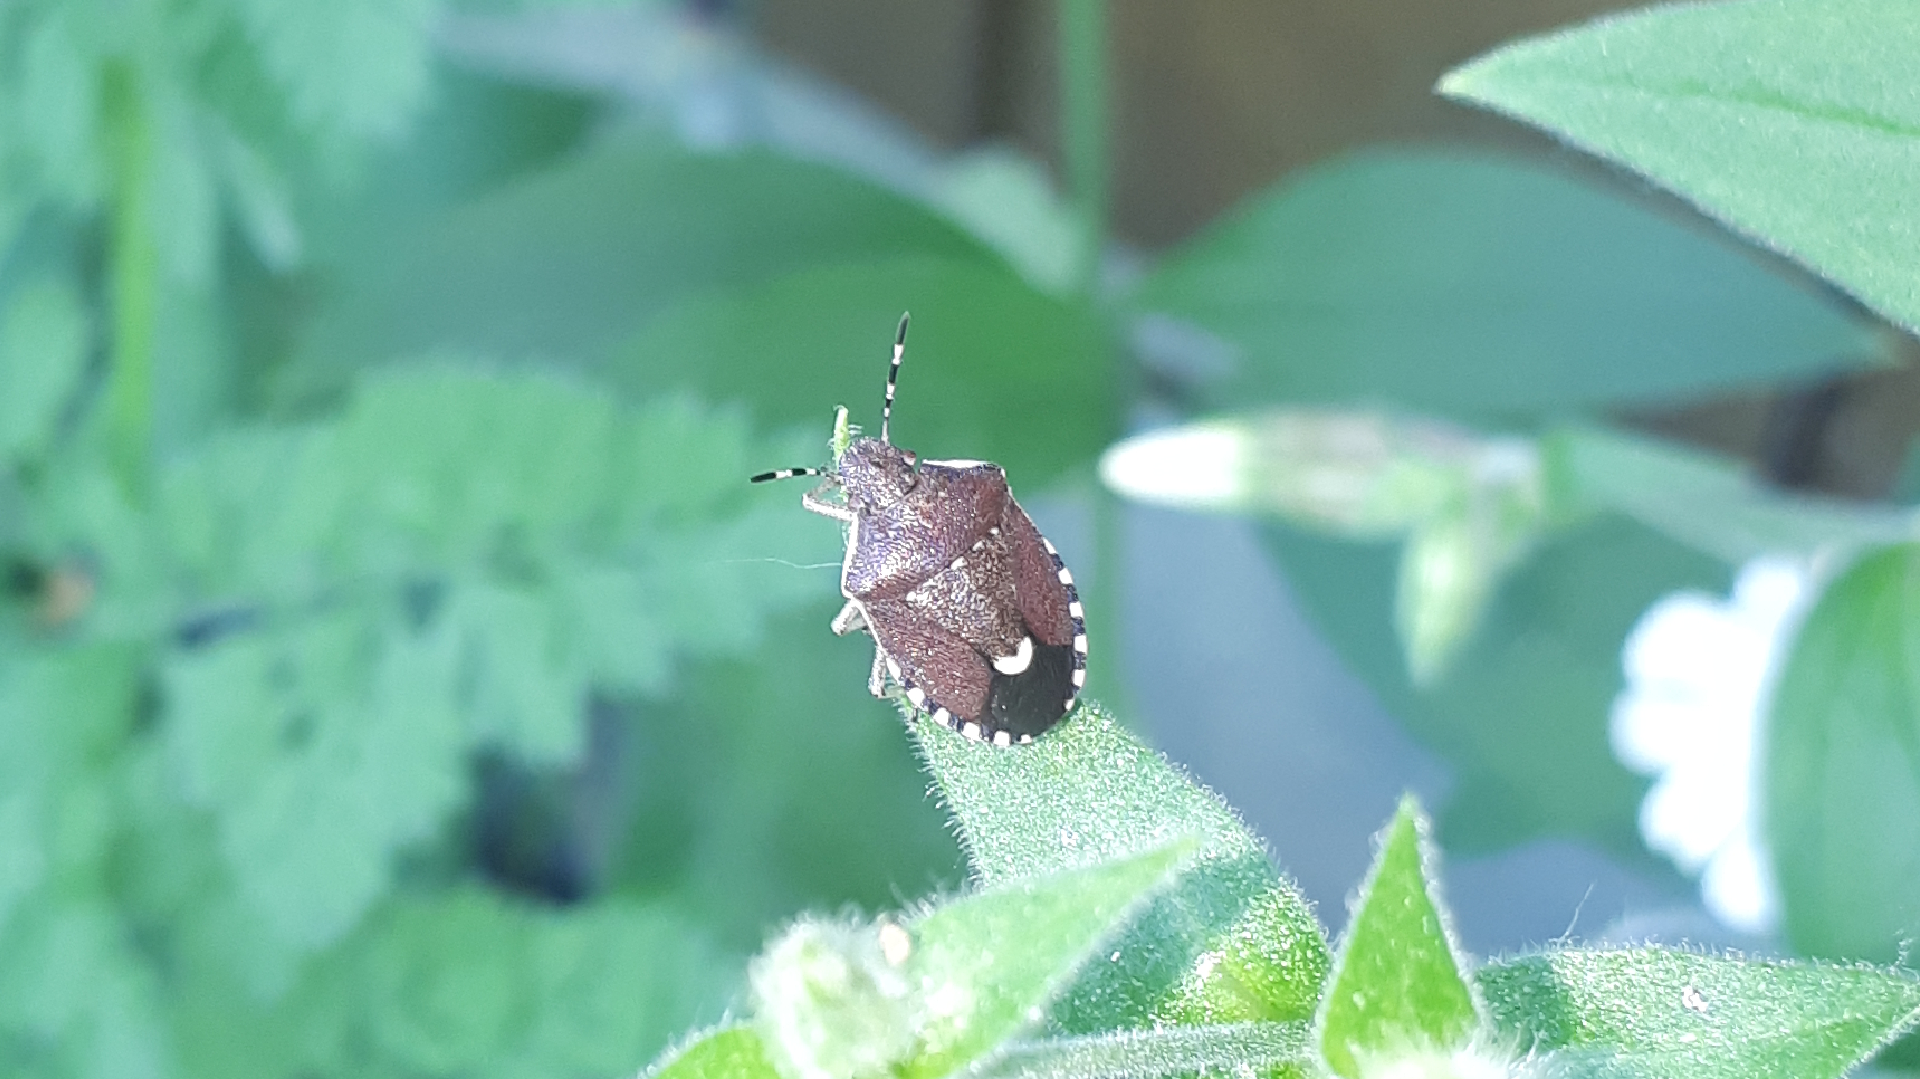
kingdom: Animalia
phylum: Arthropoda
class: Insecta
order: Hemiptera
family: Pentatomidae
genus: Holcostethus
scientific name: Holcostethus sphacelatus
